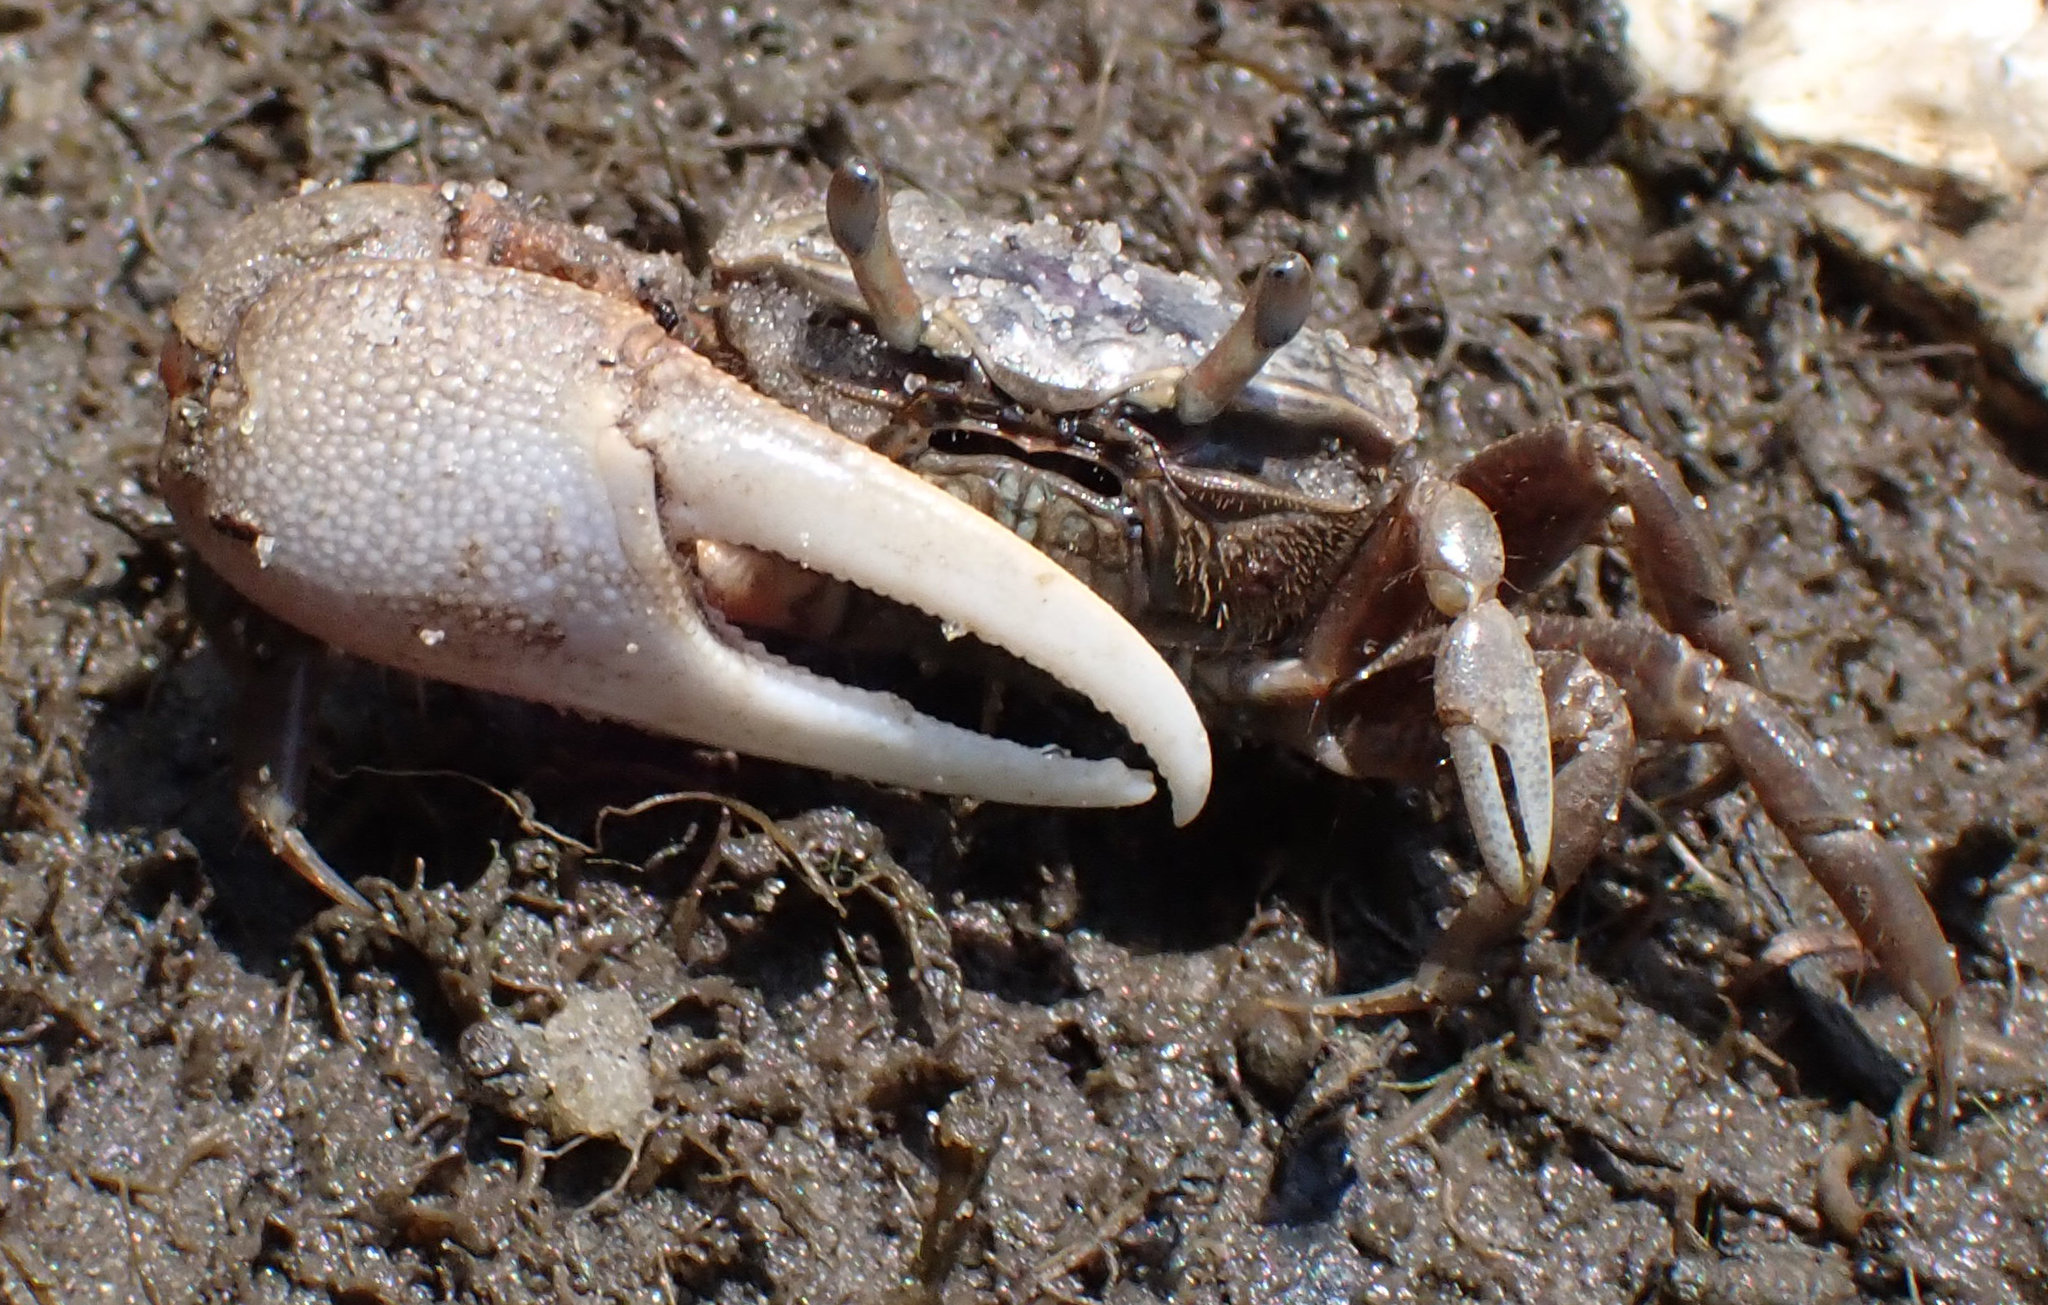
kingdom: Animalia
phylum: Arthropoda
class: Malacostraca
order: Decapoda
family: Ocypodidae
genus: Leptuca
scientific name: Leptuca pugilator
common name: Atlantic sand fiddler crab
